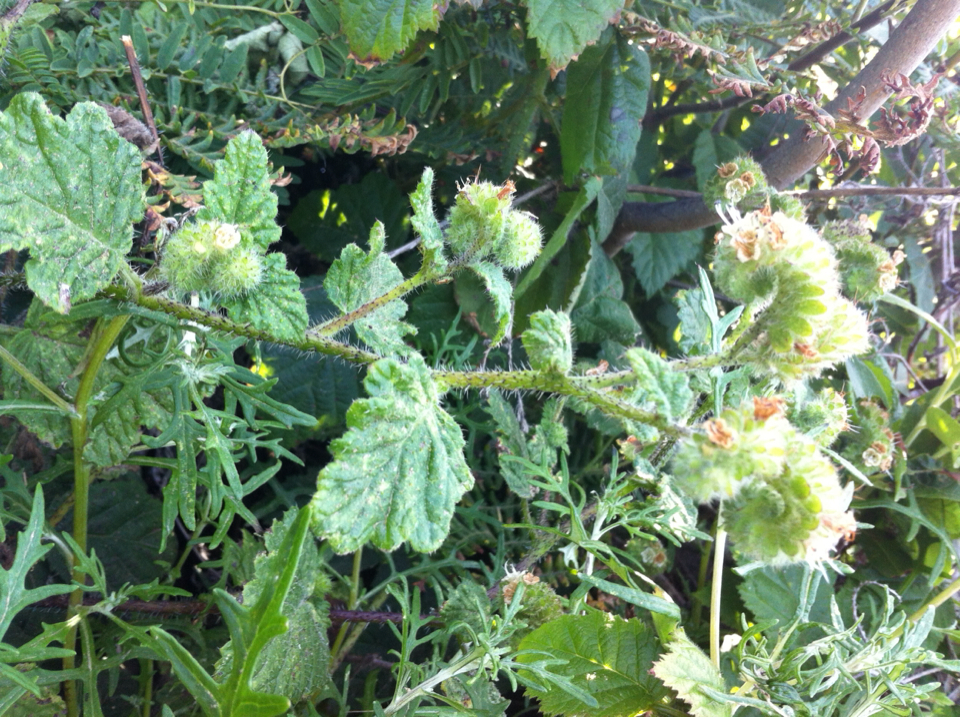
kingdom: Plantae
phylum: Tracheophyta
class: Magnoliopsida
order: Boraginales
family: Hydrophyllaceae
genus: Phacelia
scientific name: Phacelia malvifolia
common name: Mallow-leaf phacelia
